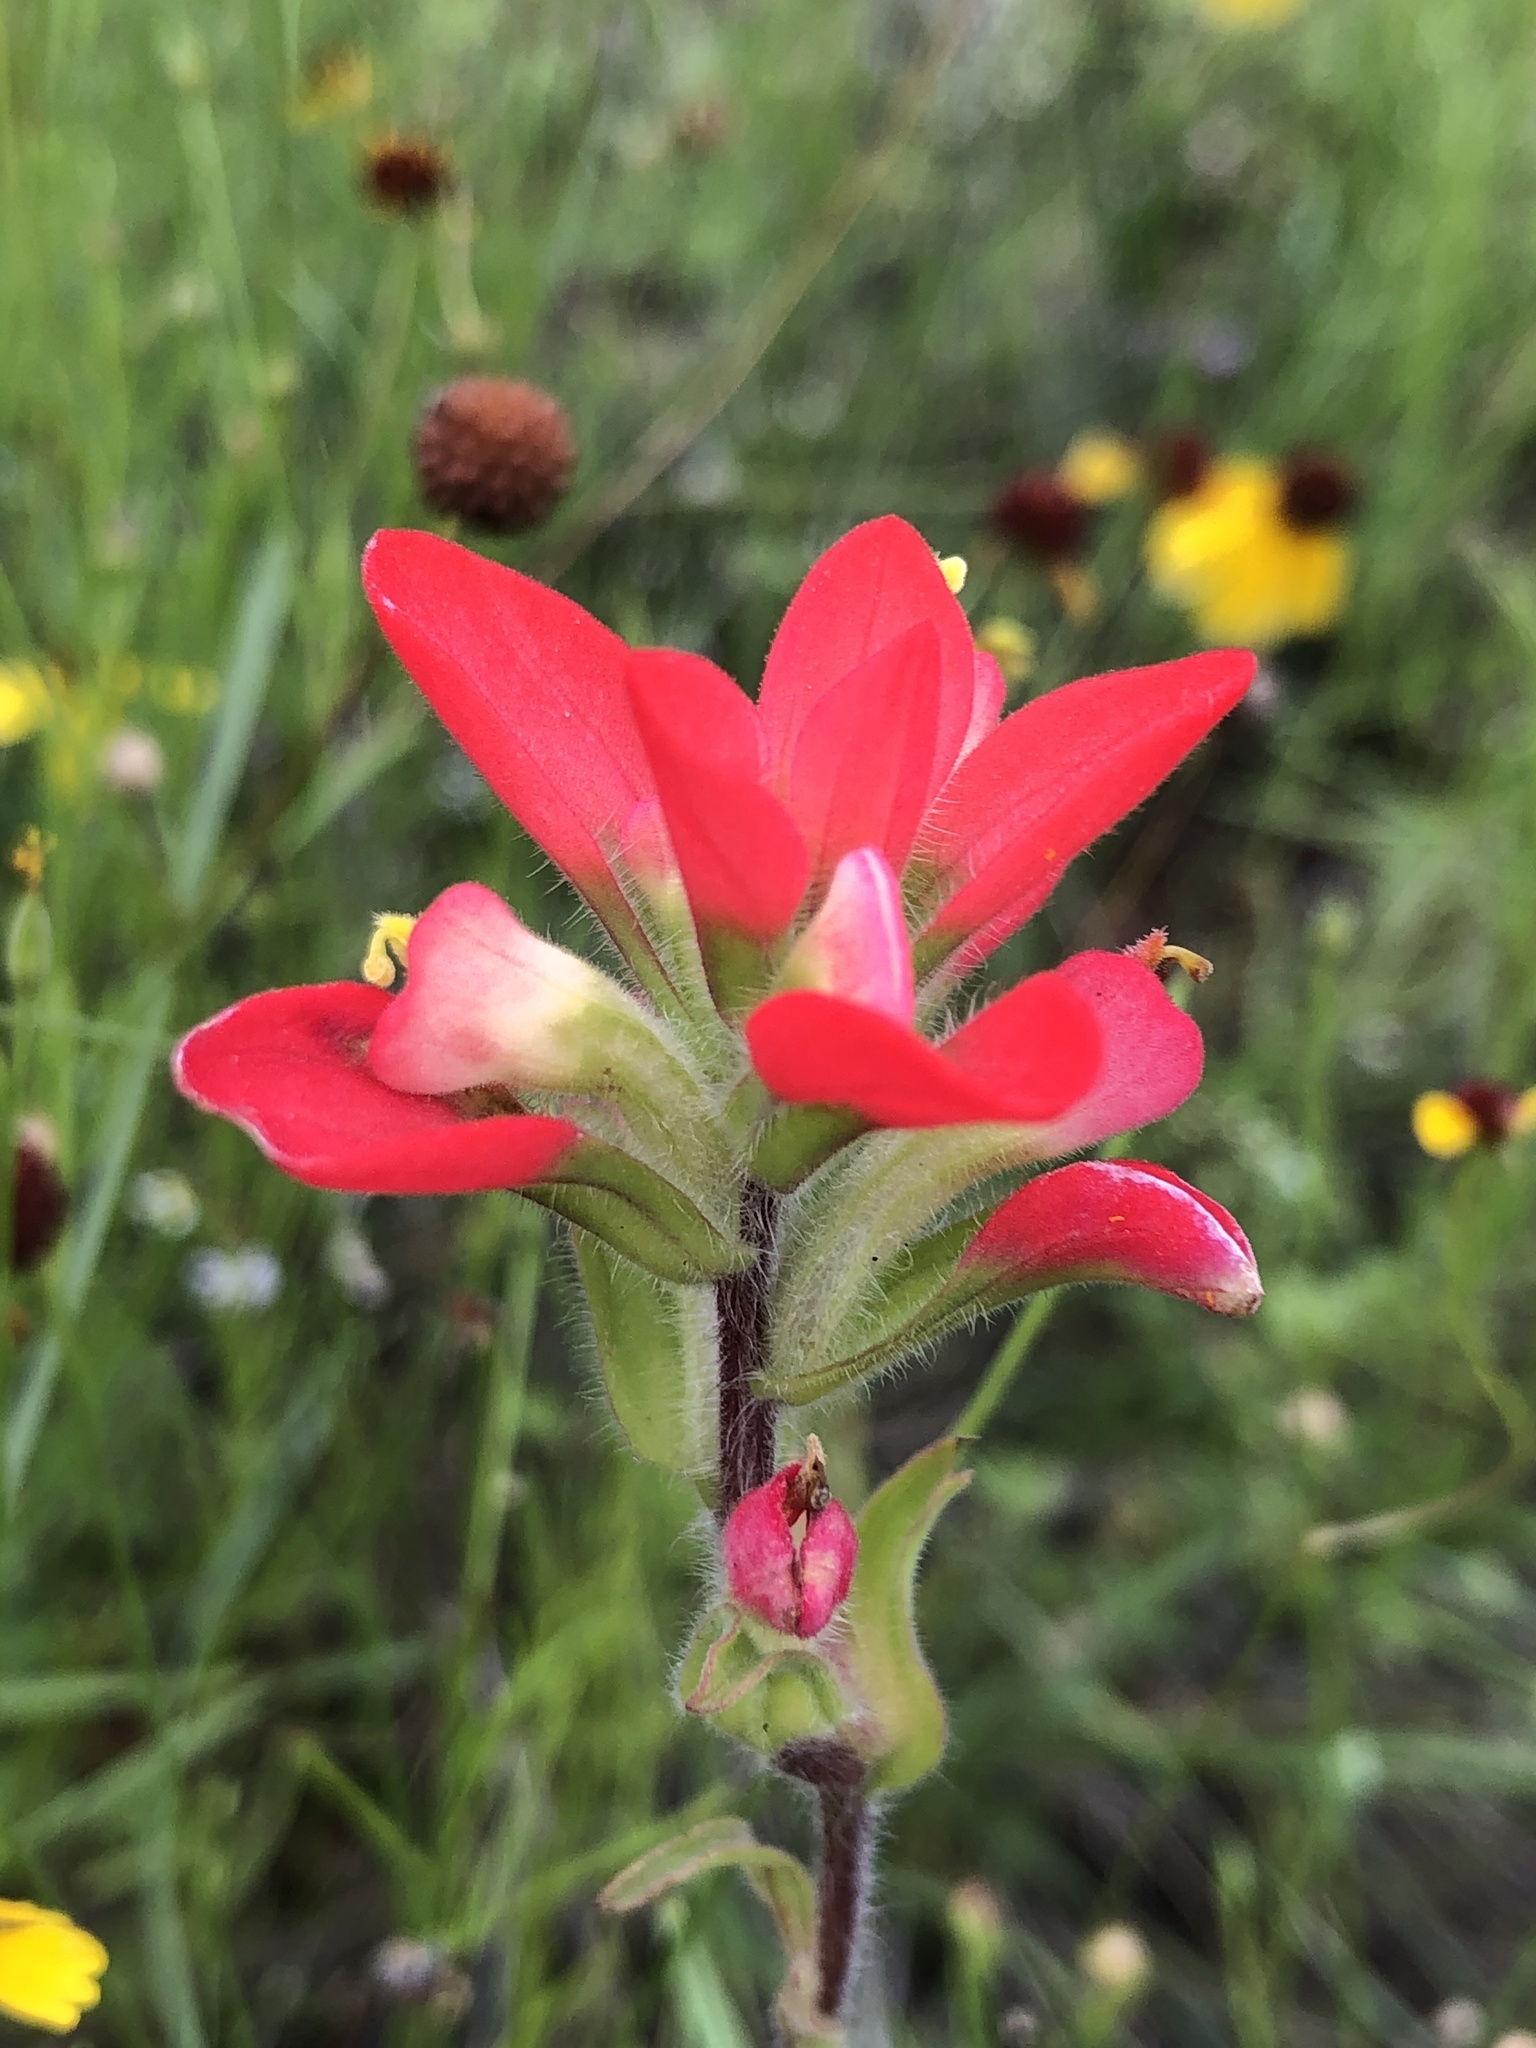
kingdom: Plantae
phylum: Tracheophyta
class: Magnoliopsida
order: Lamiales
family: Orobanchaceae
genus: Castilleja
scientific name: Castilleja indivisa
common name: Texas paintbrush
